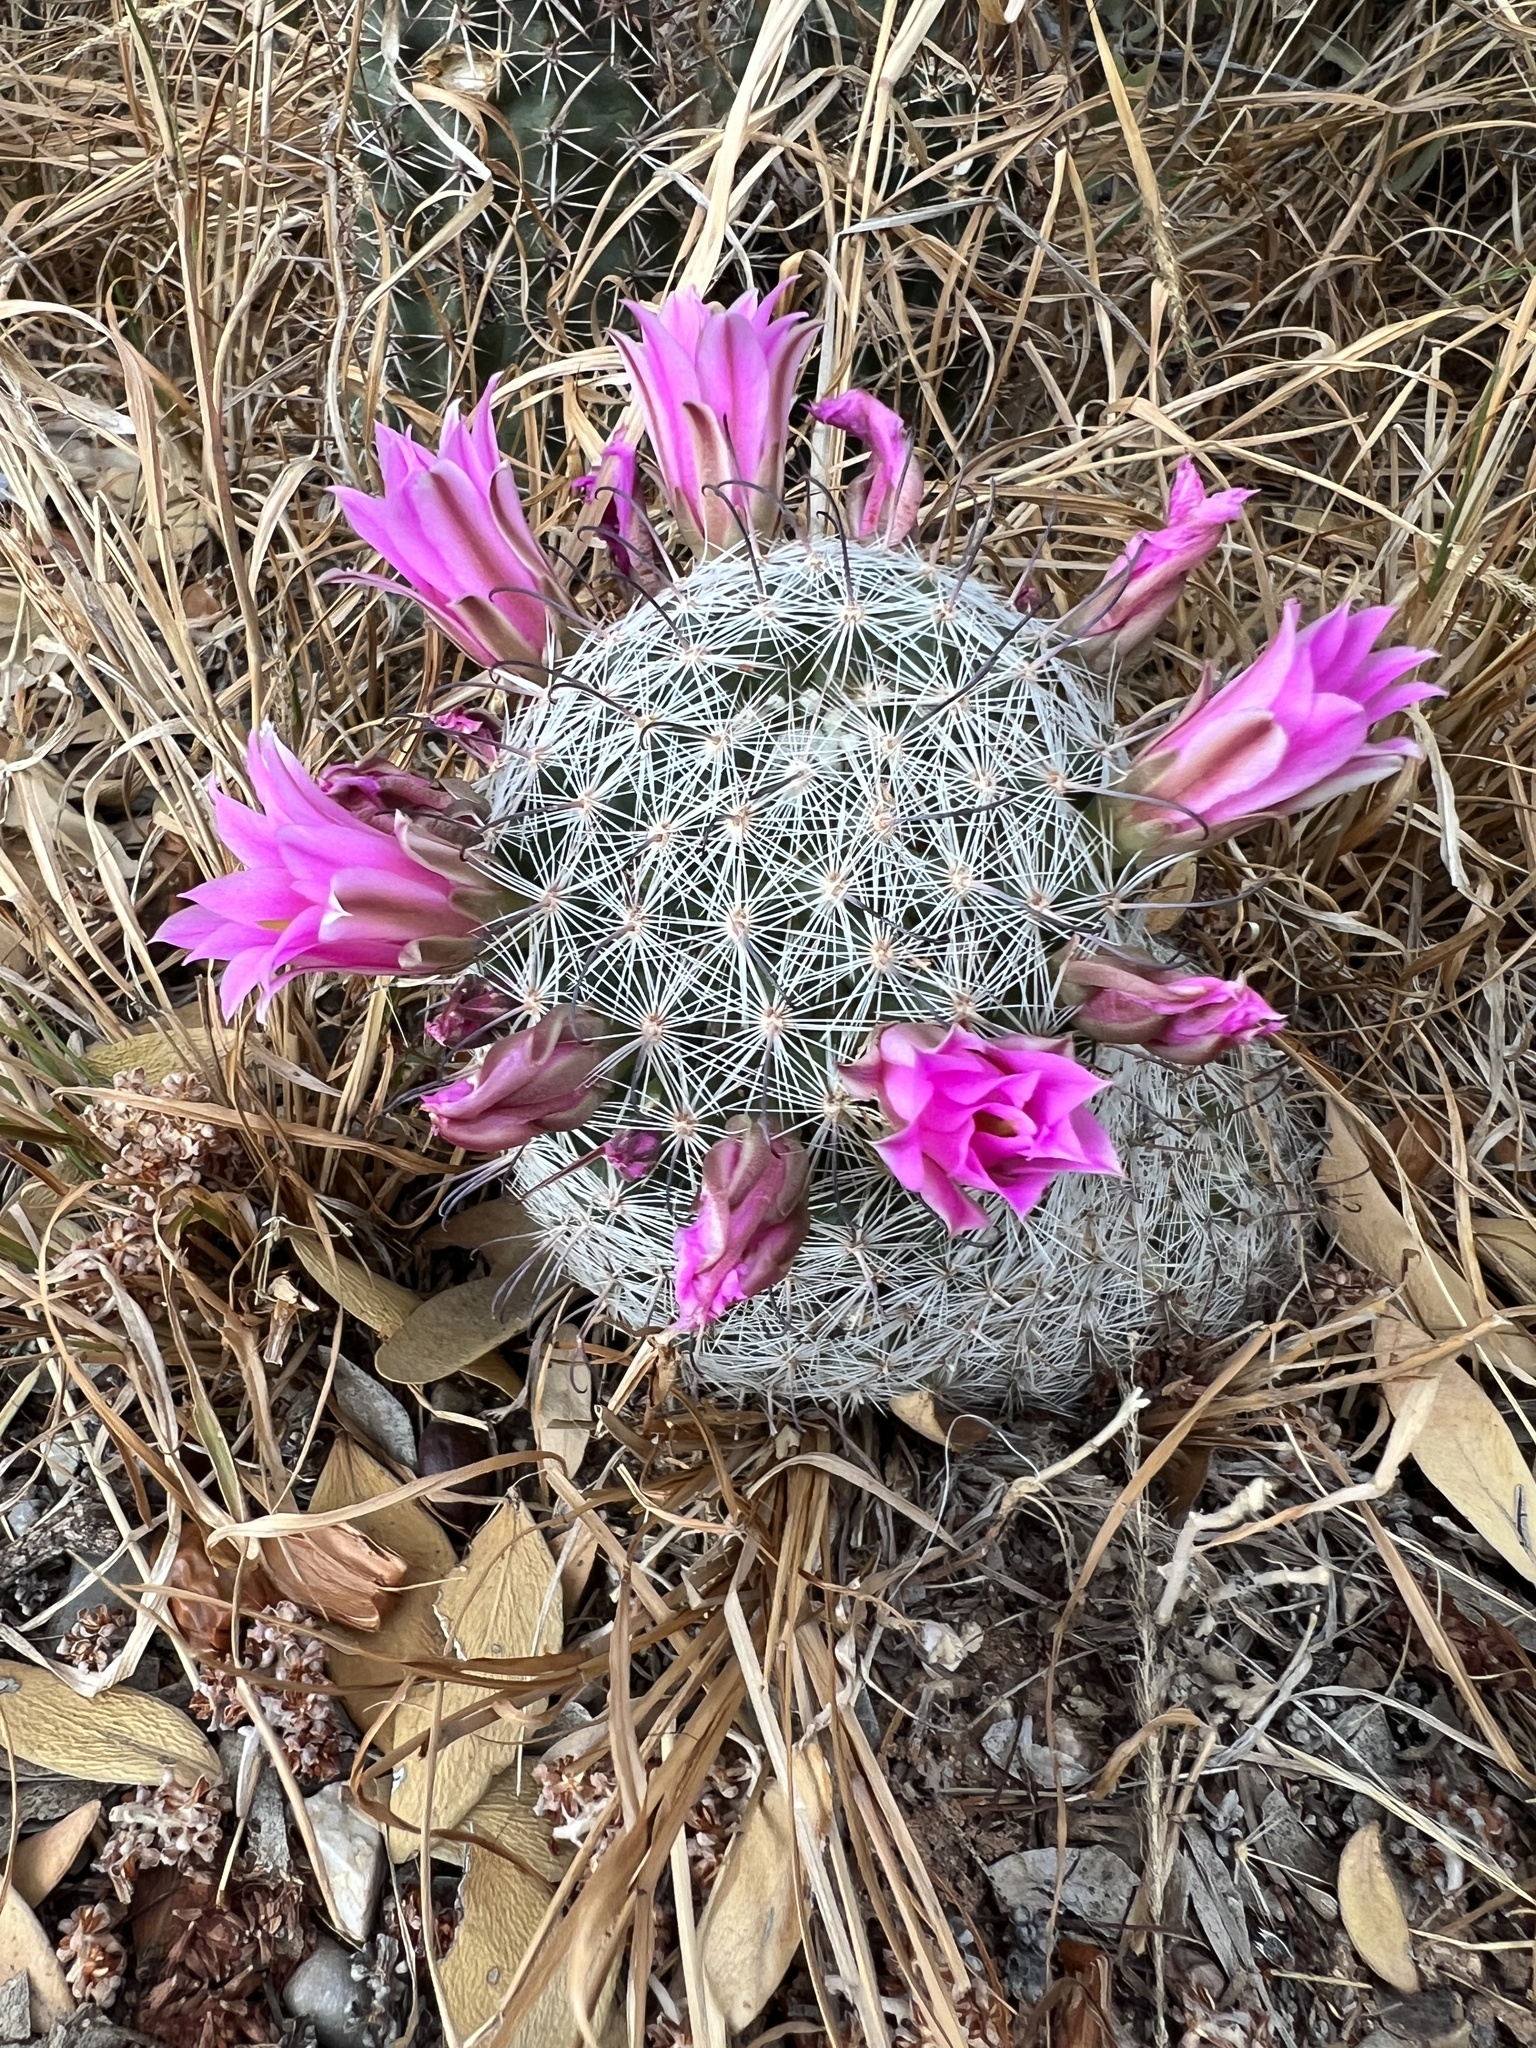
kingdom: Plantae
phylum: Tracheophyta
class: Magnoliopsida
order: Caryophyllales
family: Cactaceae
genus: Cochemiea
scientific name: Cochemiea grahamii
